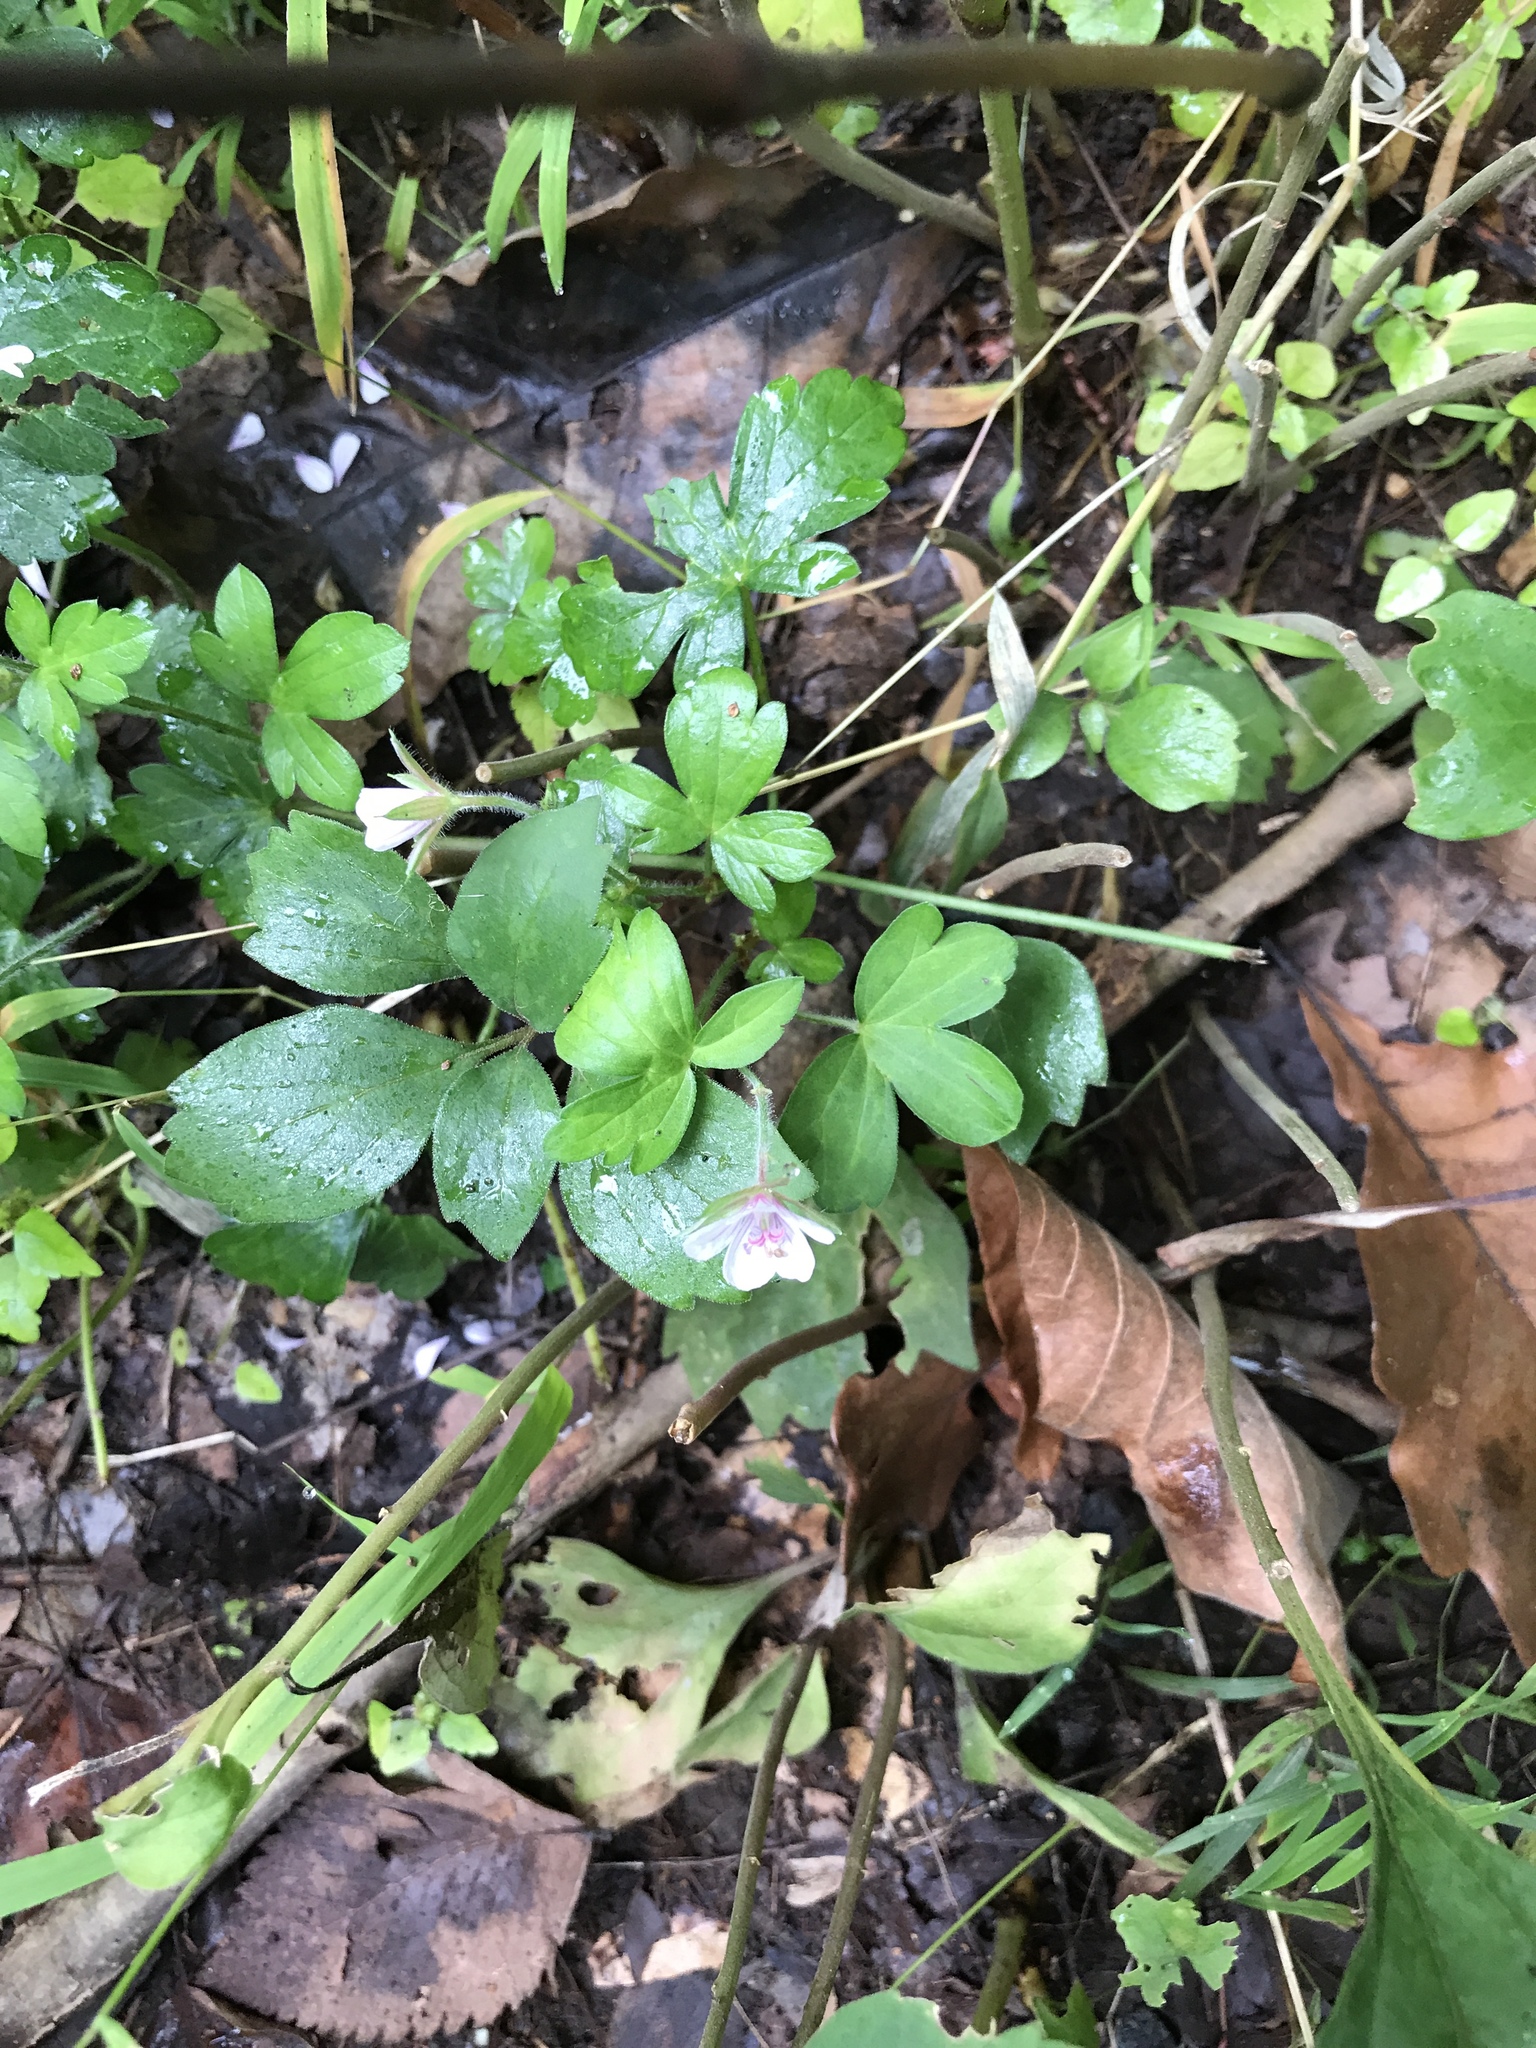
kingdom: Plantae
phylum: Tracheophyta
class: Magnoliopsida
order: Geraniales
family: Geraniaceae
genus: Geranium
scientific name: Geranium thunbergii
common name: Dewdrop crane's-bill
